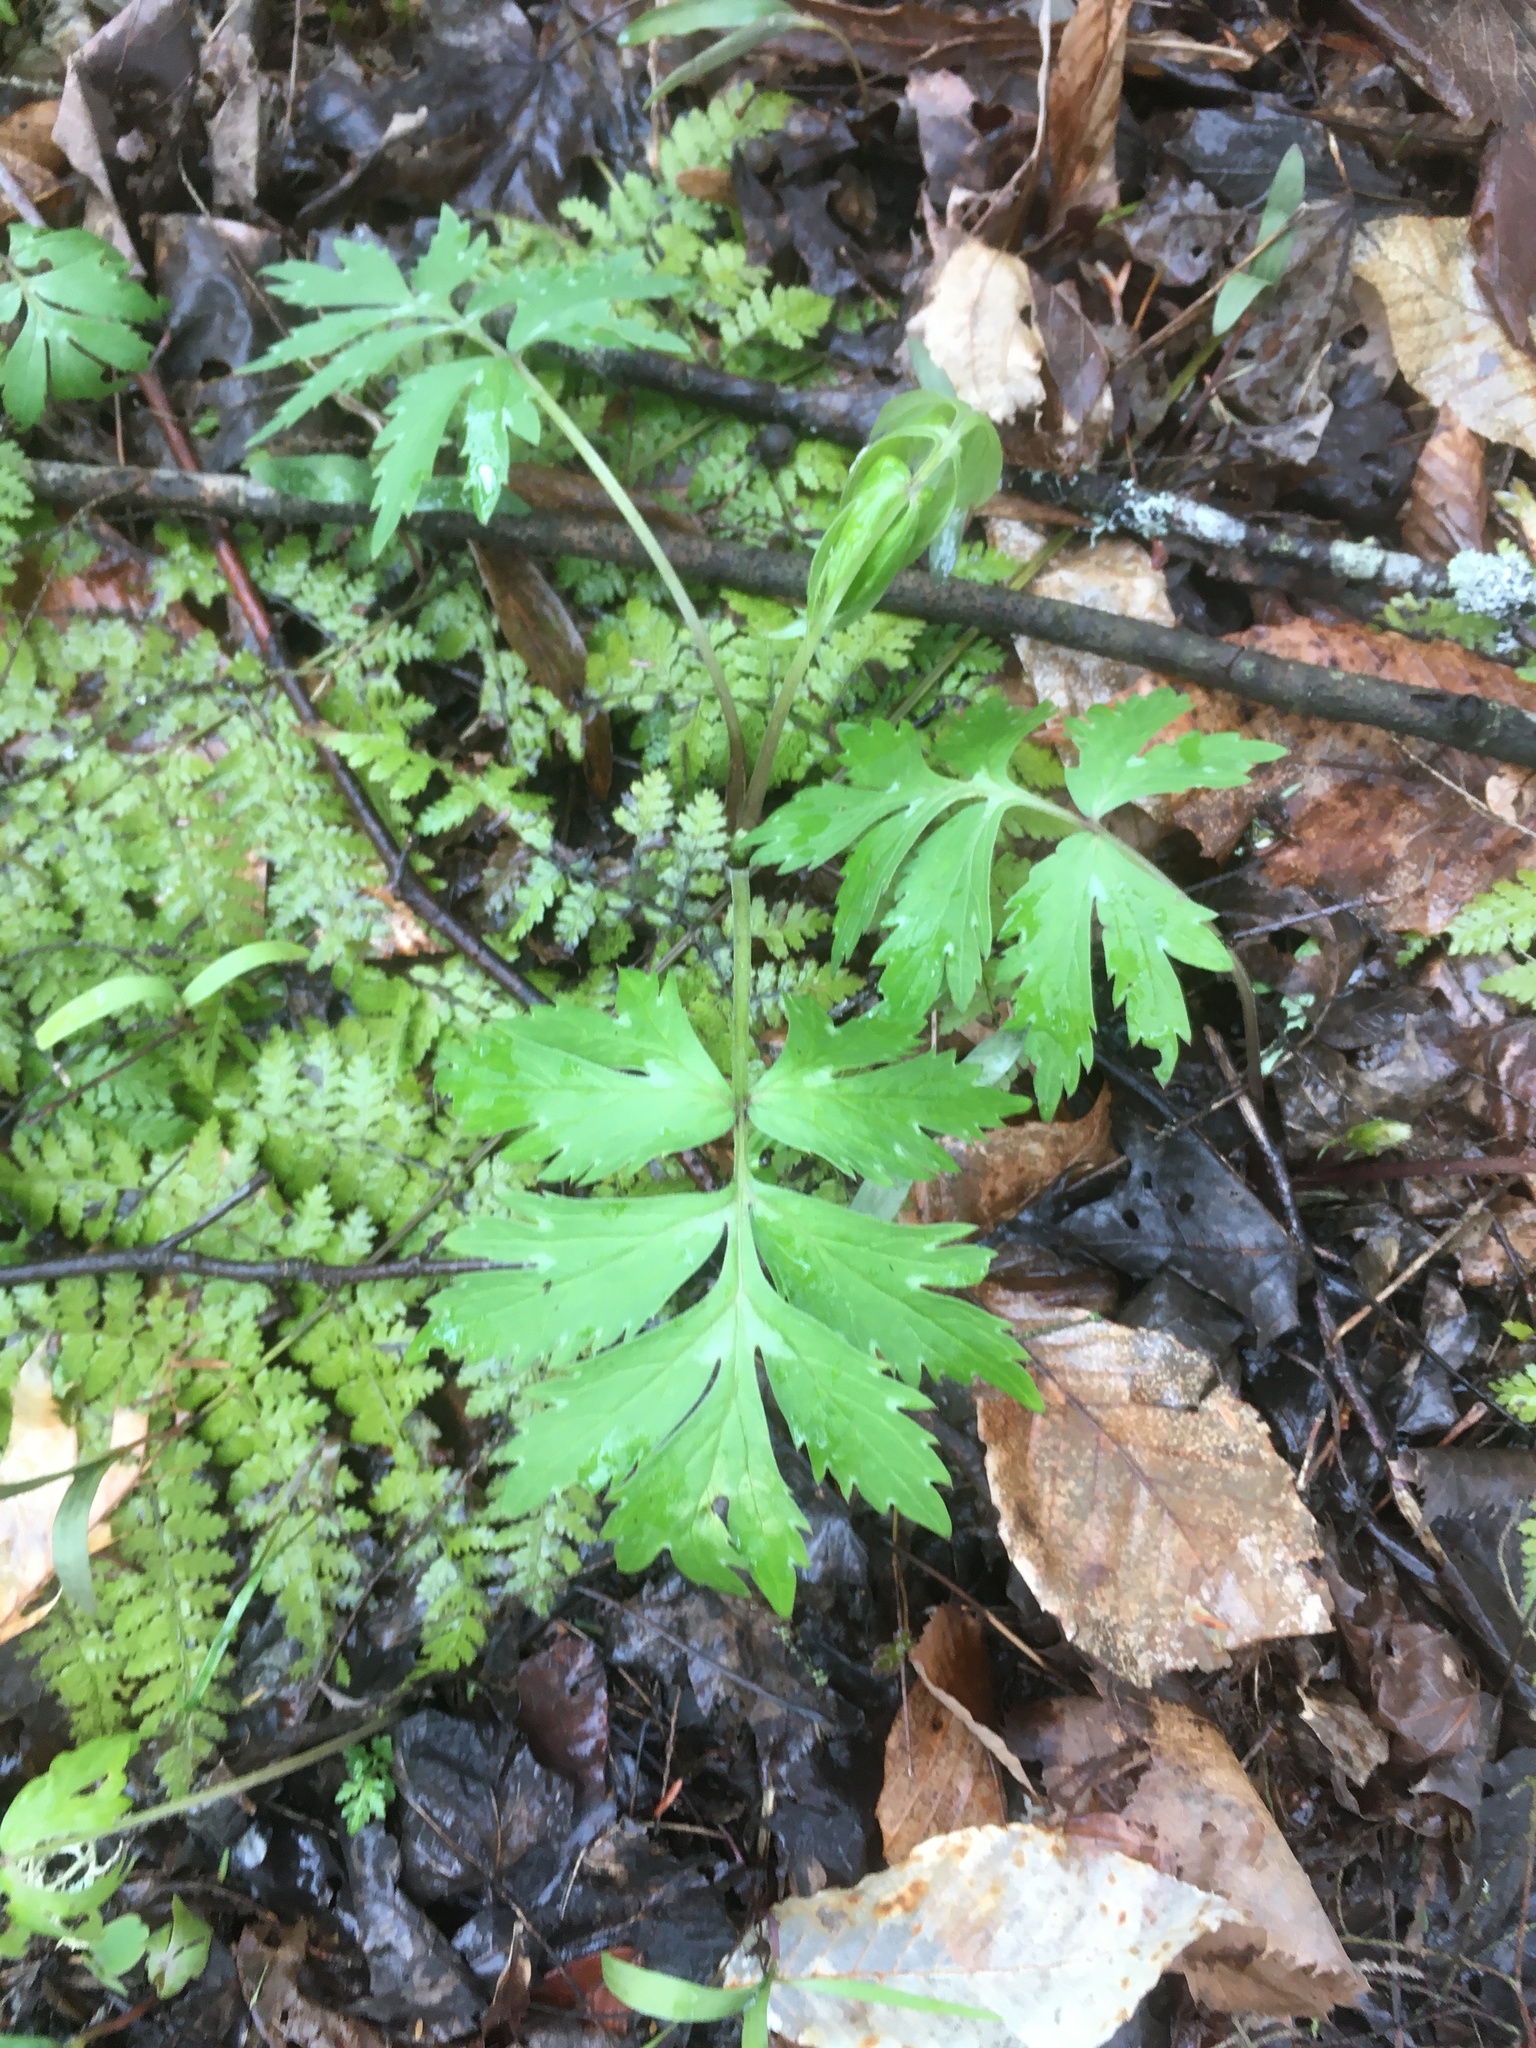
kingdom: Plantae
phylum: Tracheophyta
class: Magnoliopsida
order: Boraginales
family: Hydrophyllaceae
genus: Hydrophyllum
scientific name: Hydrophyllum virginianum
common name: Virginia waterleaf
